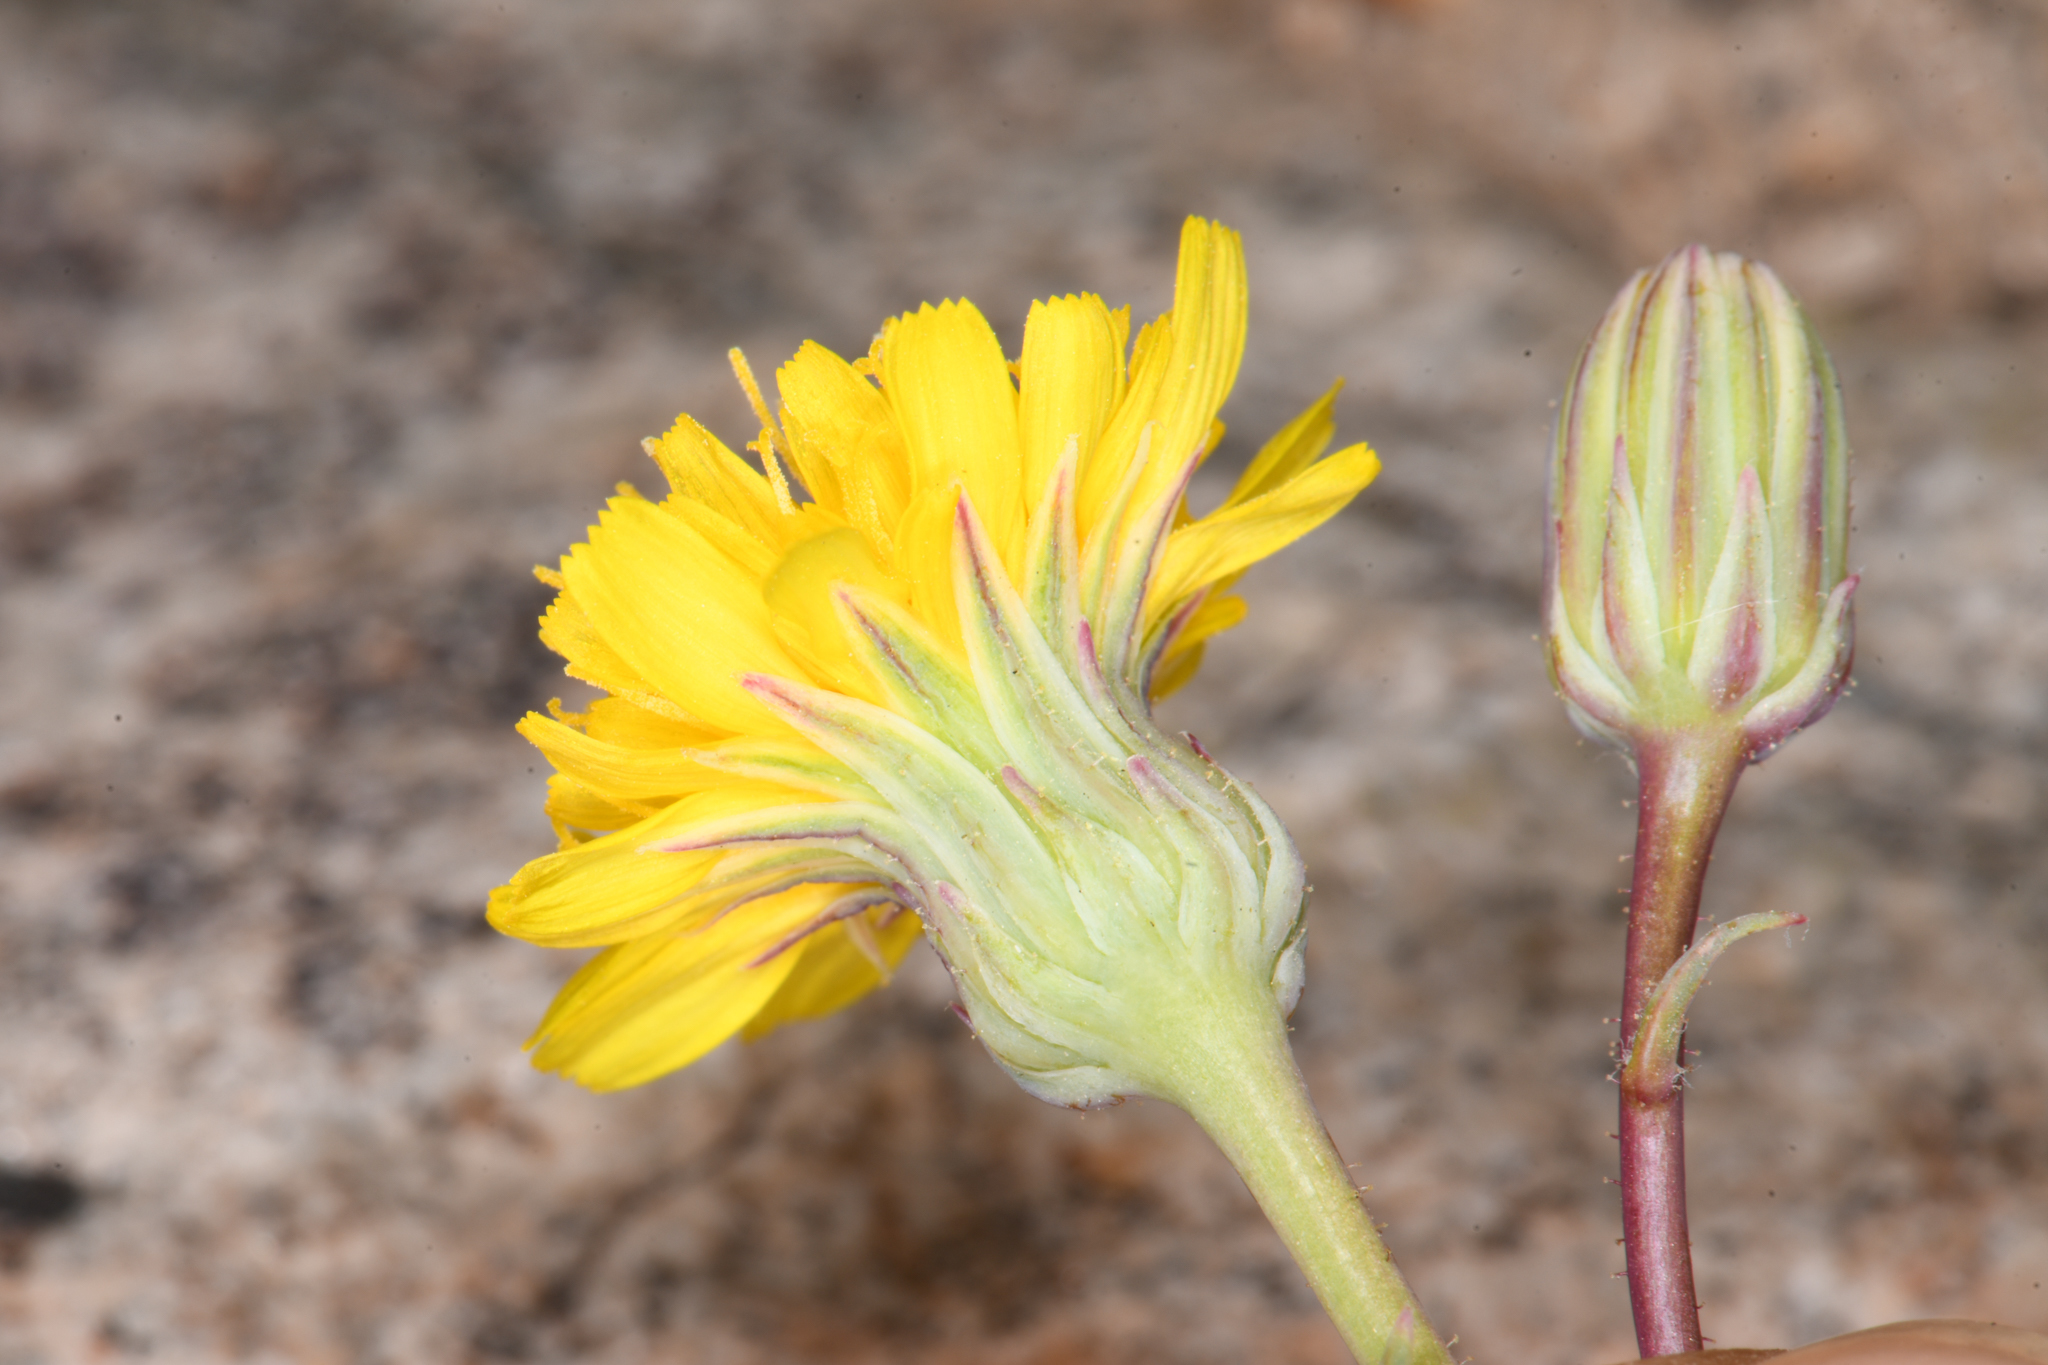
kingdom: Plantae
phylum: Tracheophyta
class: Magnoliopsida
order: Asterales
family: Asteraceae
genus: Malacothrix
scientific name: Malacothrix torreyi
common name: Torrey's desert-dandelion
